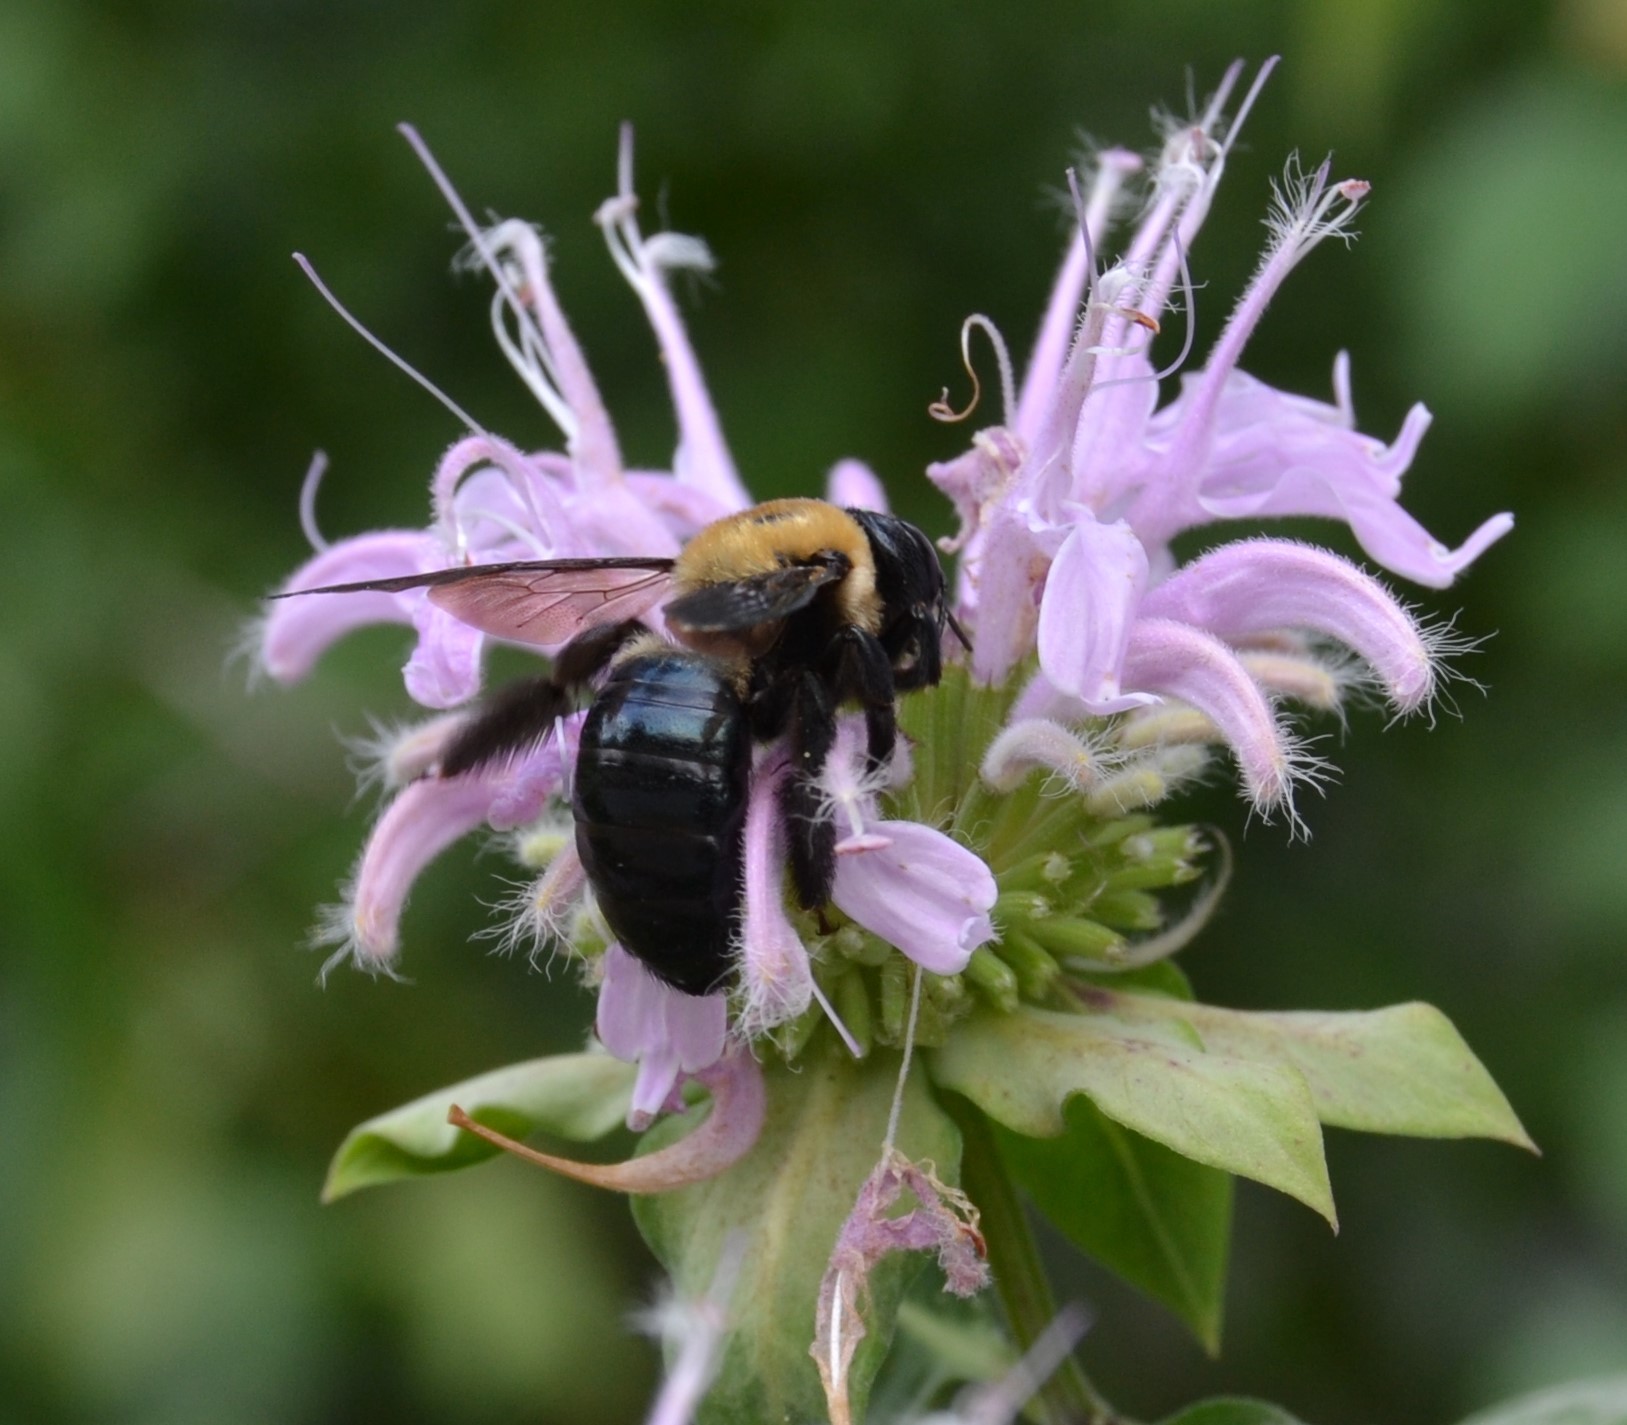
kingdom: Animalia
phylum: Arthropoda
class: Insecta
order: Hymenoptera
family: Apidae
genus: Xylocopa
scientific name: Xylocopa virginica
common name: Carpenter bee
